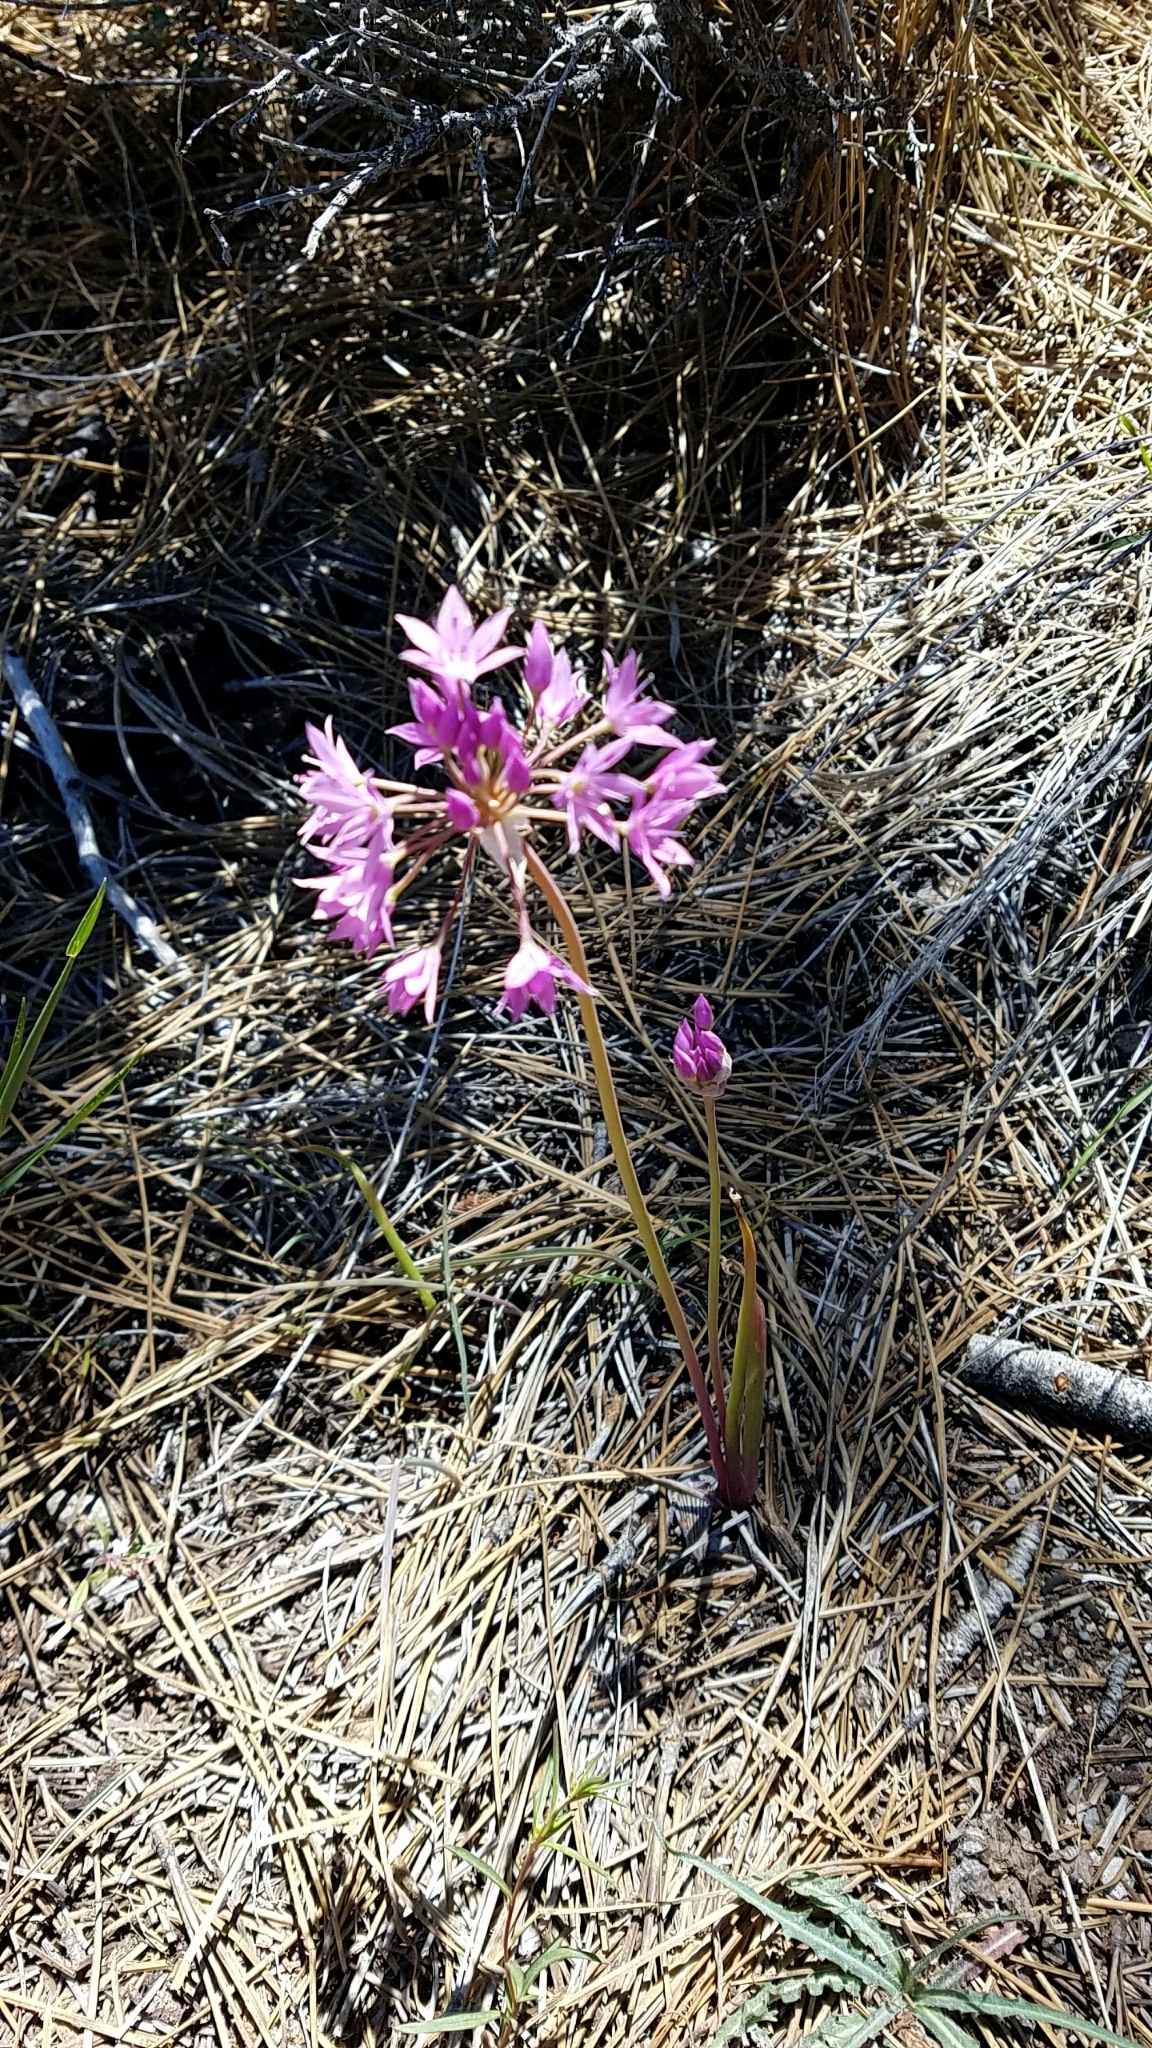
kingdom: Plantae
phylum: Tracheophyta
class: Liliopsida
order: Asparagales
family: Amaryllidaceae
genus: Allium
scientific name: Allium bisceptrum
